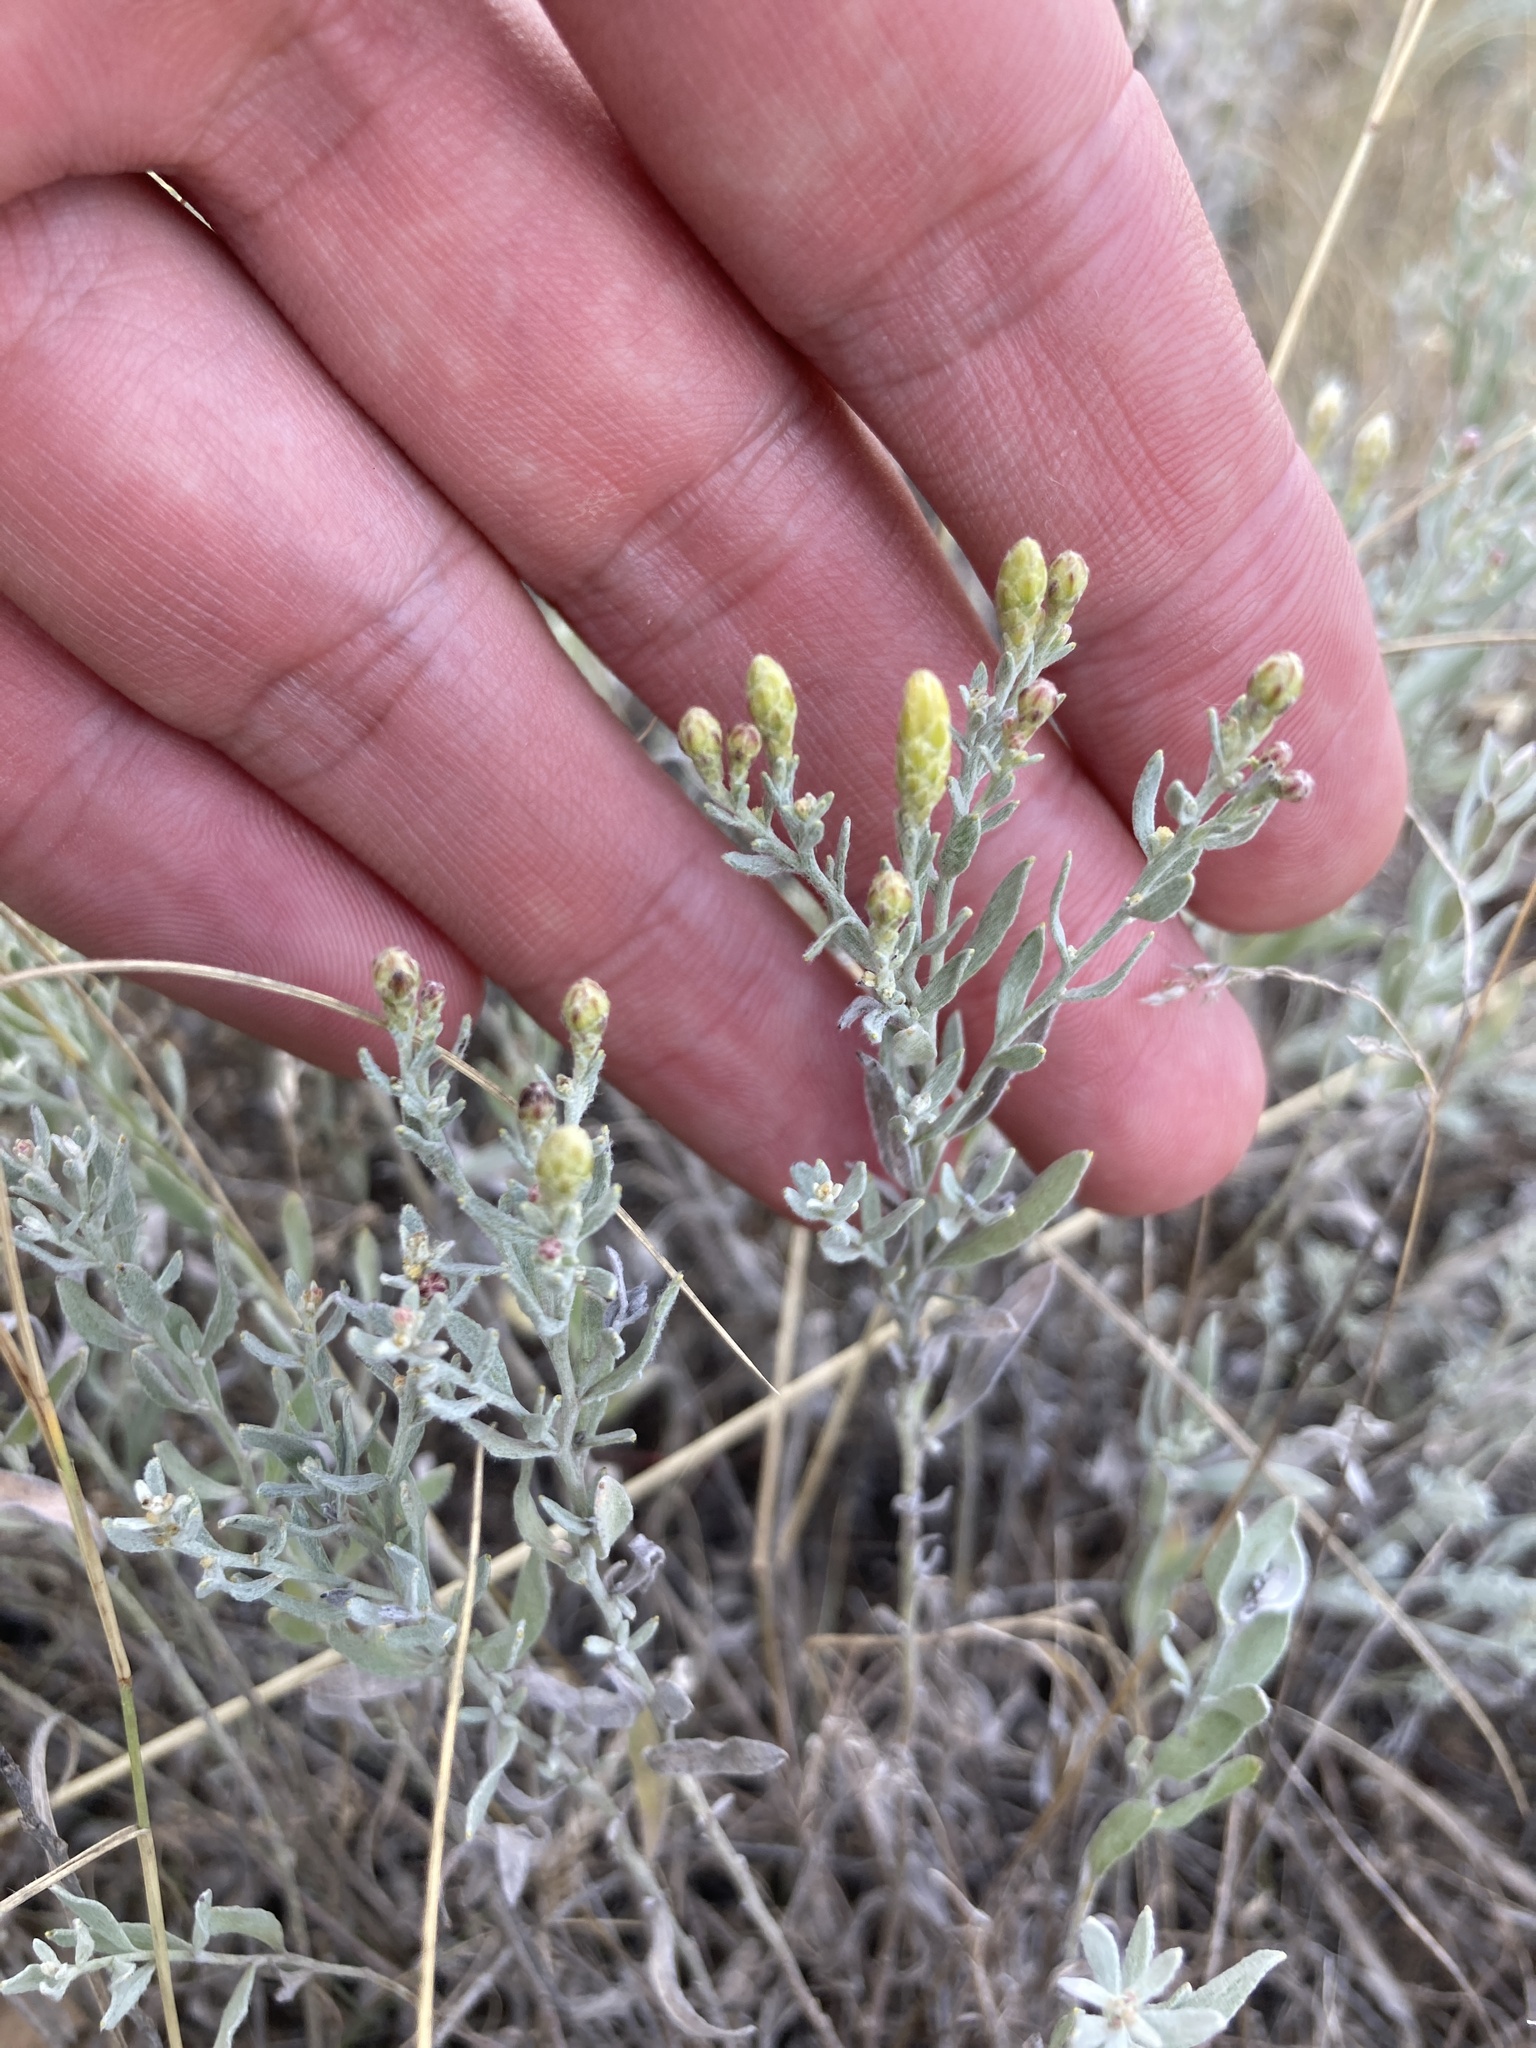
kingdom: Plantae
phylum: Tracheophyta
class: Magnoliopsida
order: Asterales
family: Asteraceae
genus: Galatella
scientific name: Galatella villosa
